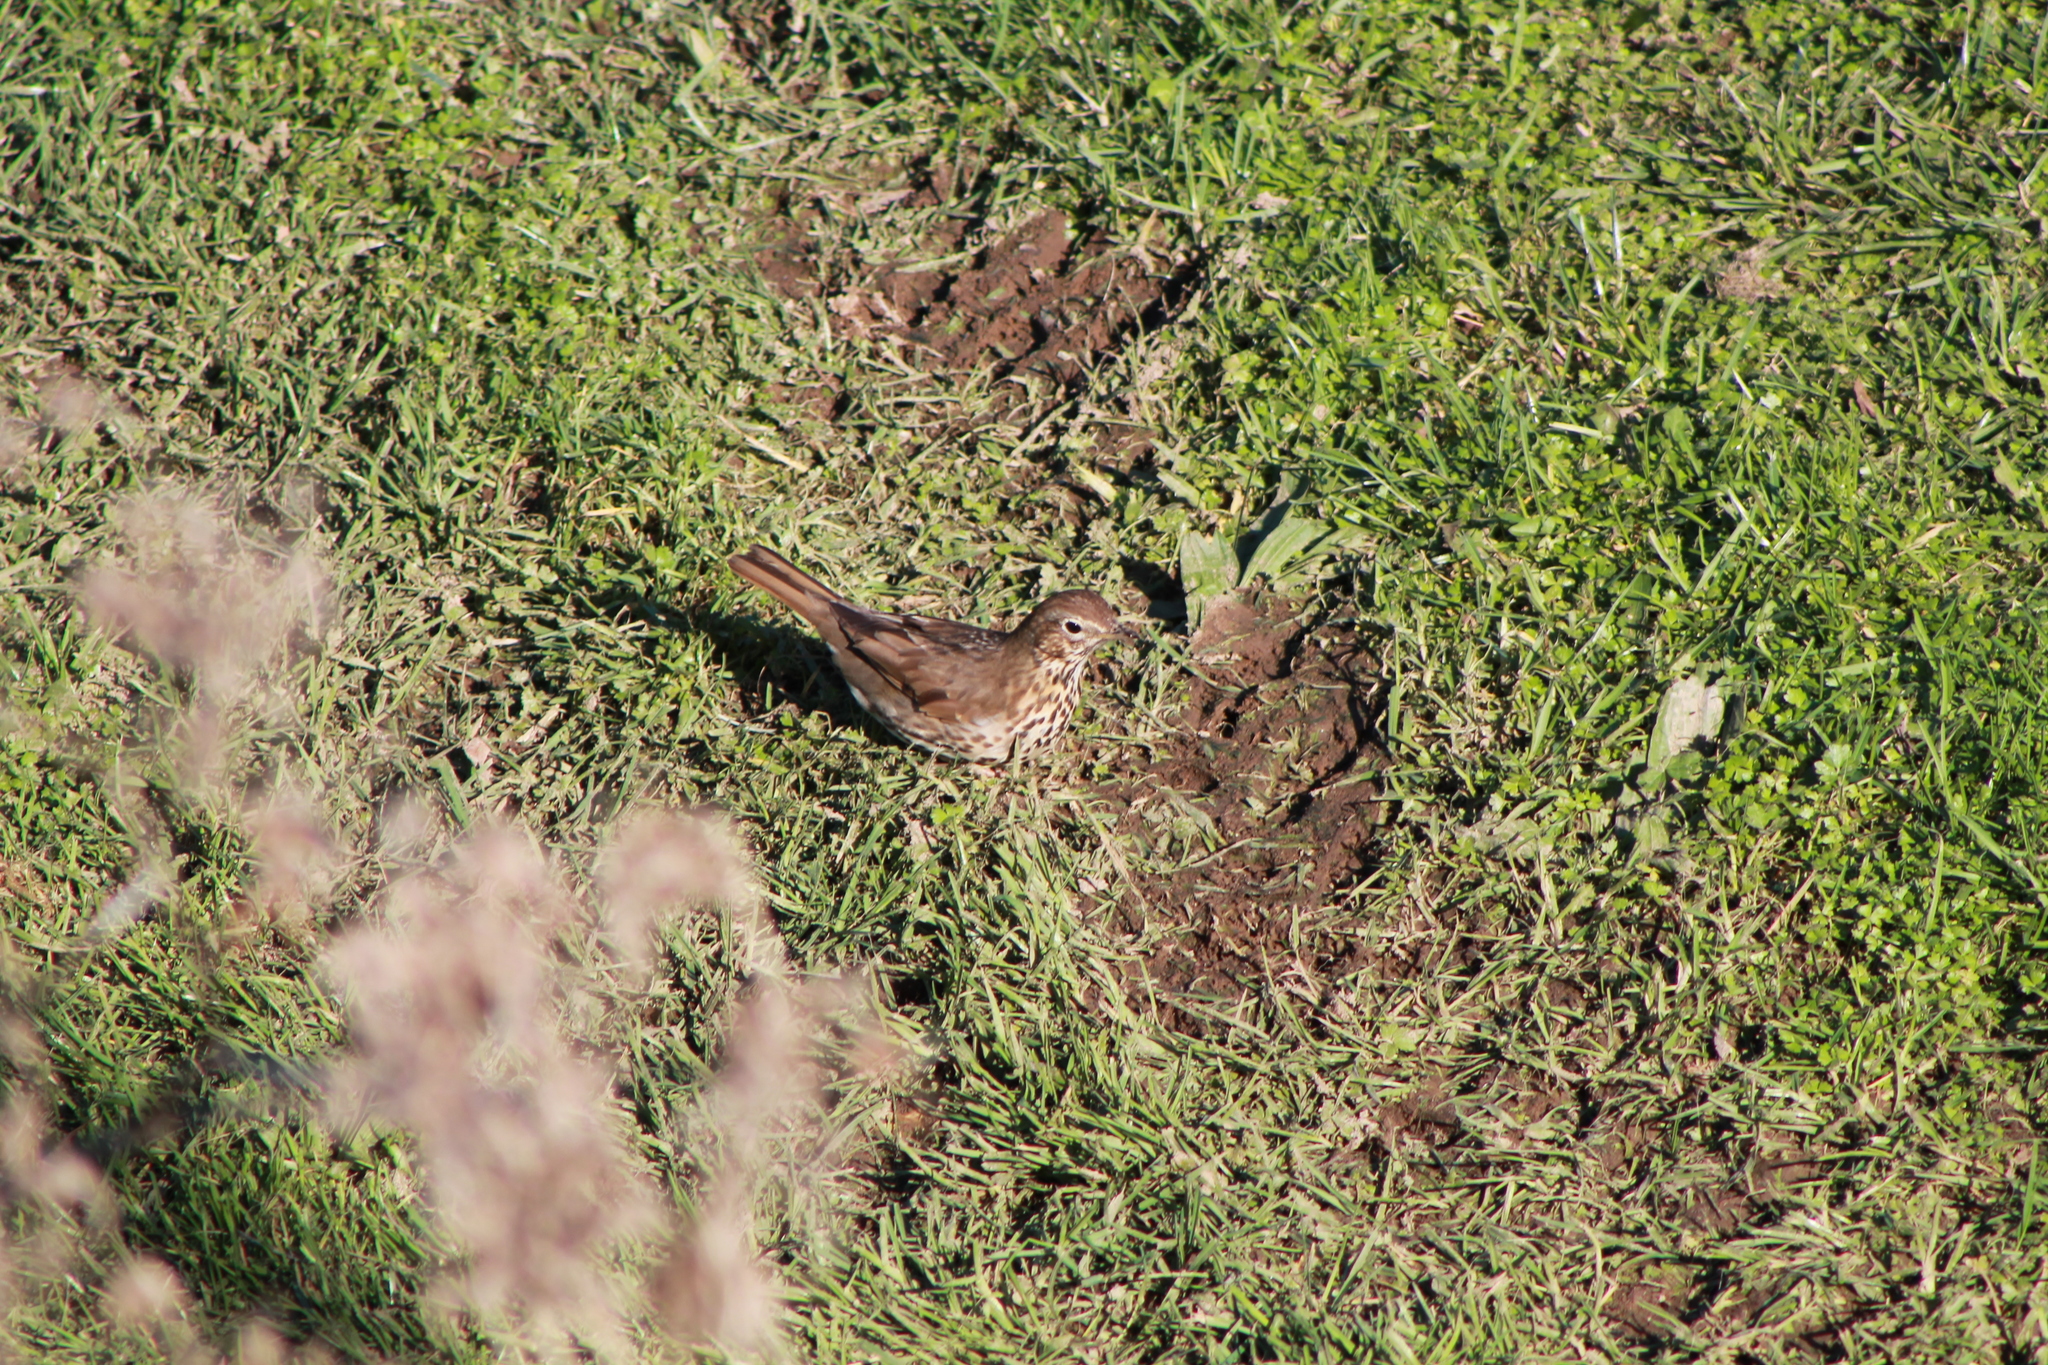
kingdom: Animalia
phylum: Chordata
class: Aves
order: Passeriformes
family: Turdidae
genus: Turdus
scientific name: Turdus philomelos
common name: Song thrush
